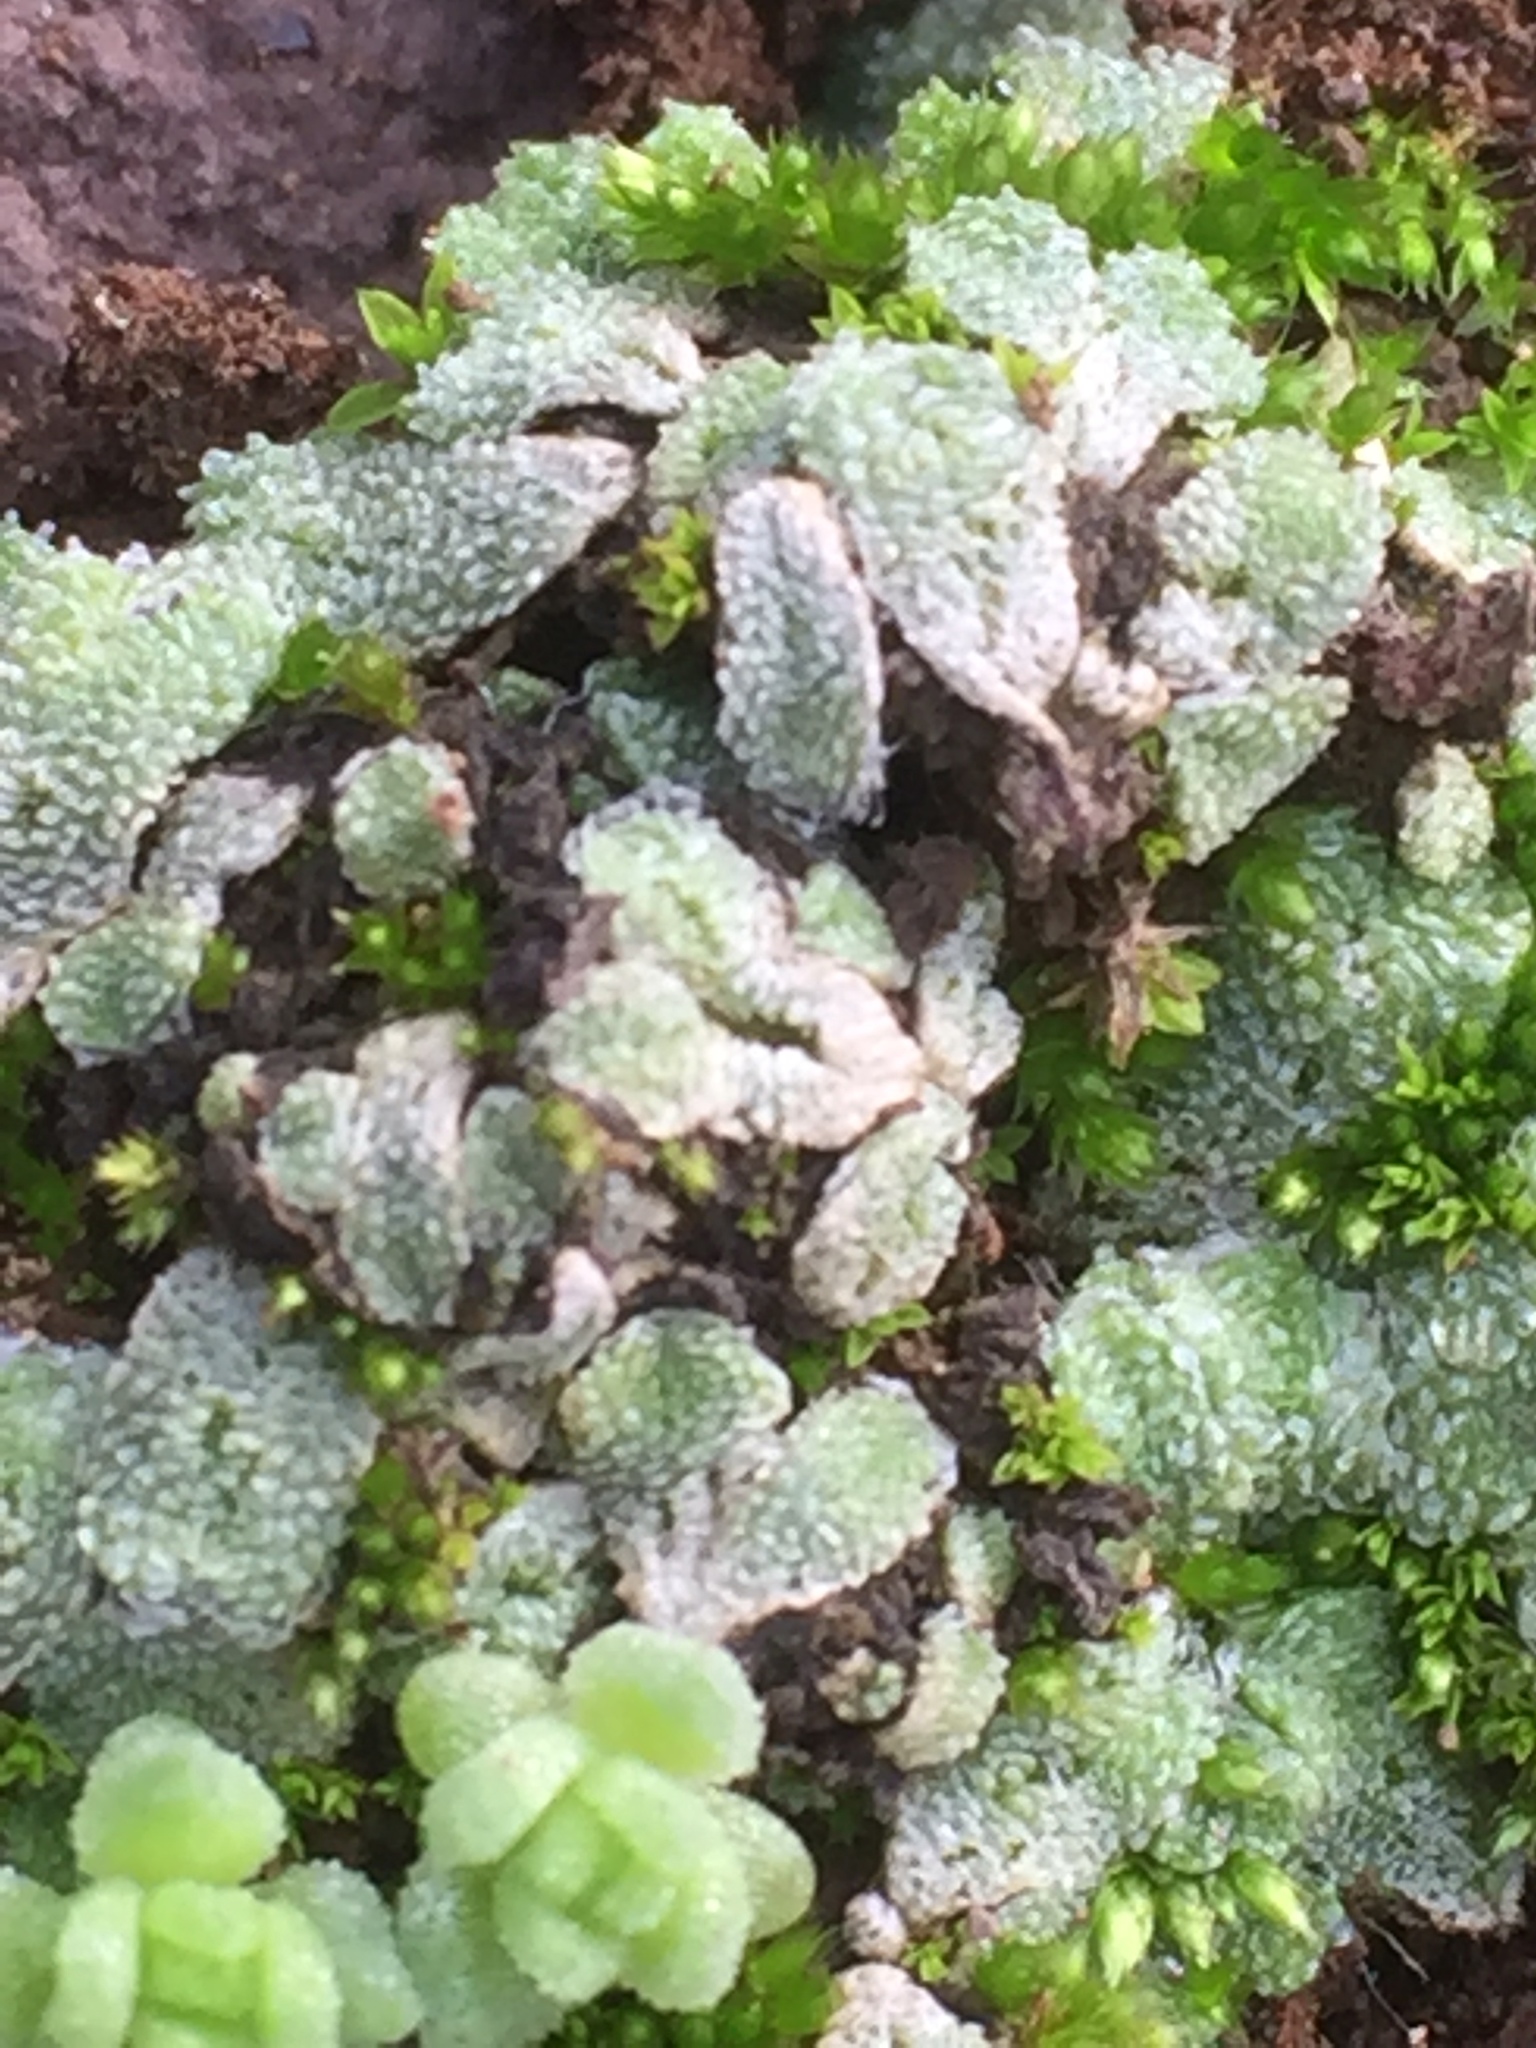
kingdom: Plantae
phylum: Marchantiophyta
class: Marchantiopsida
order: Marchantiales
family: Corsiniaceae
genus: Exormotheca
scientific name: Exormotheca pustulosa
